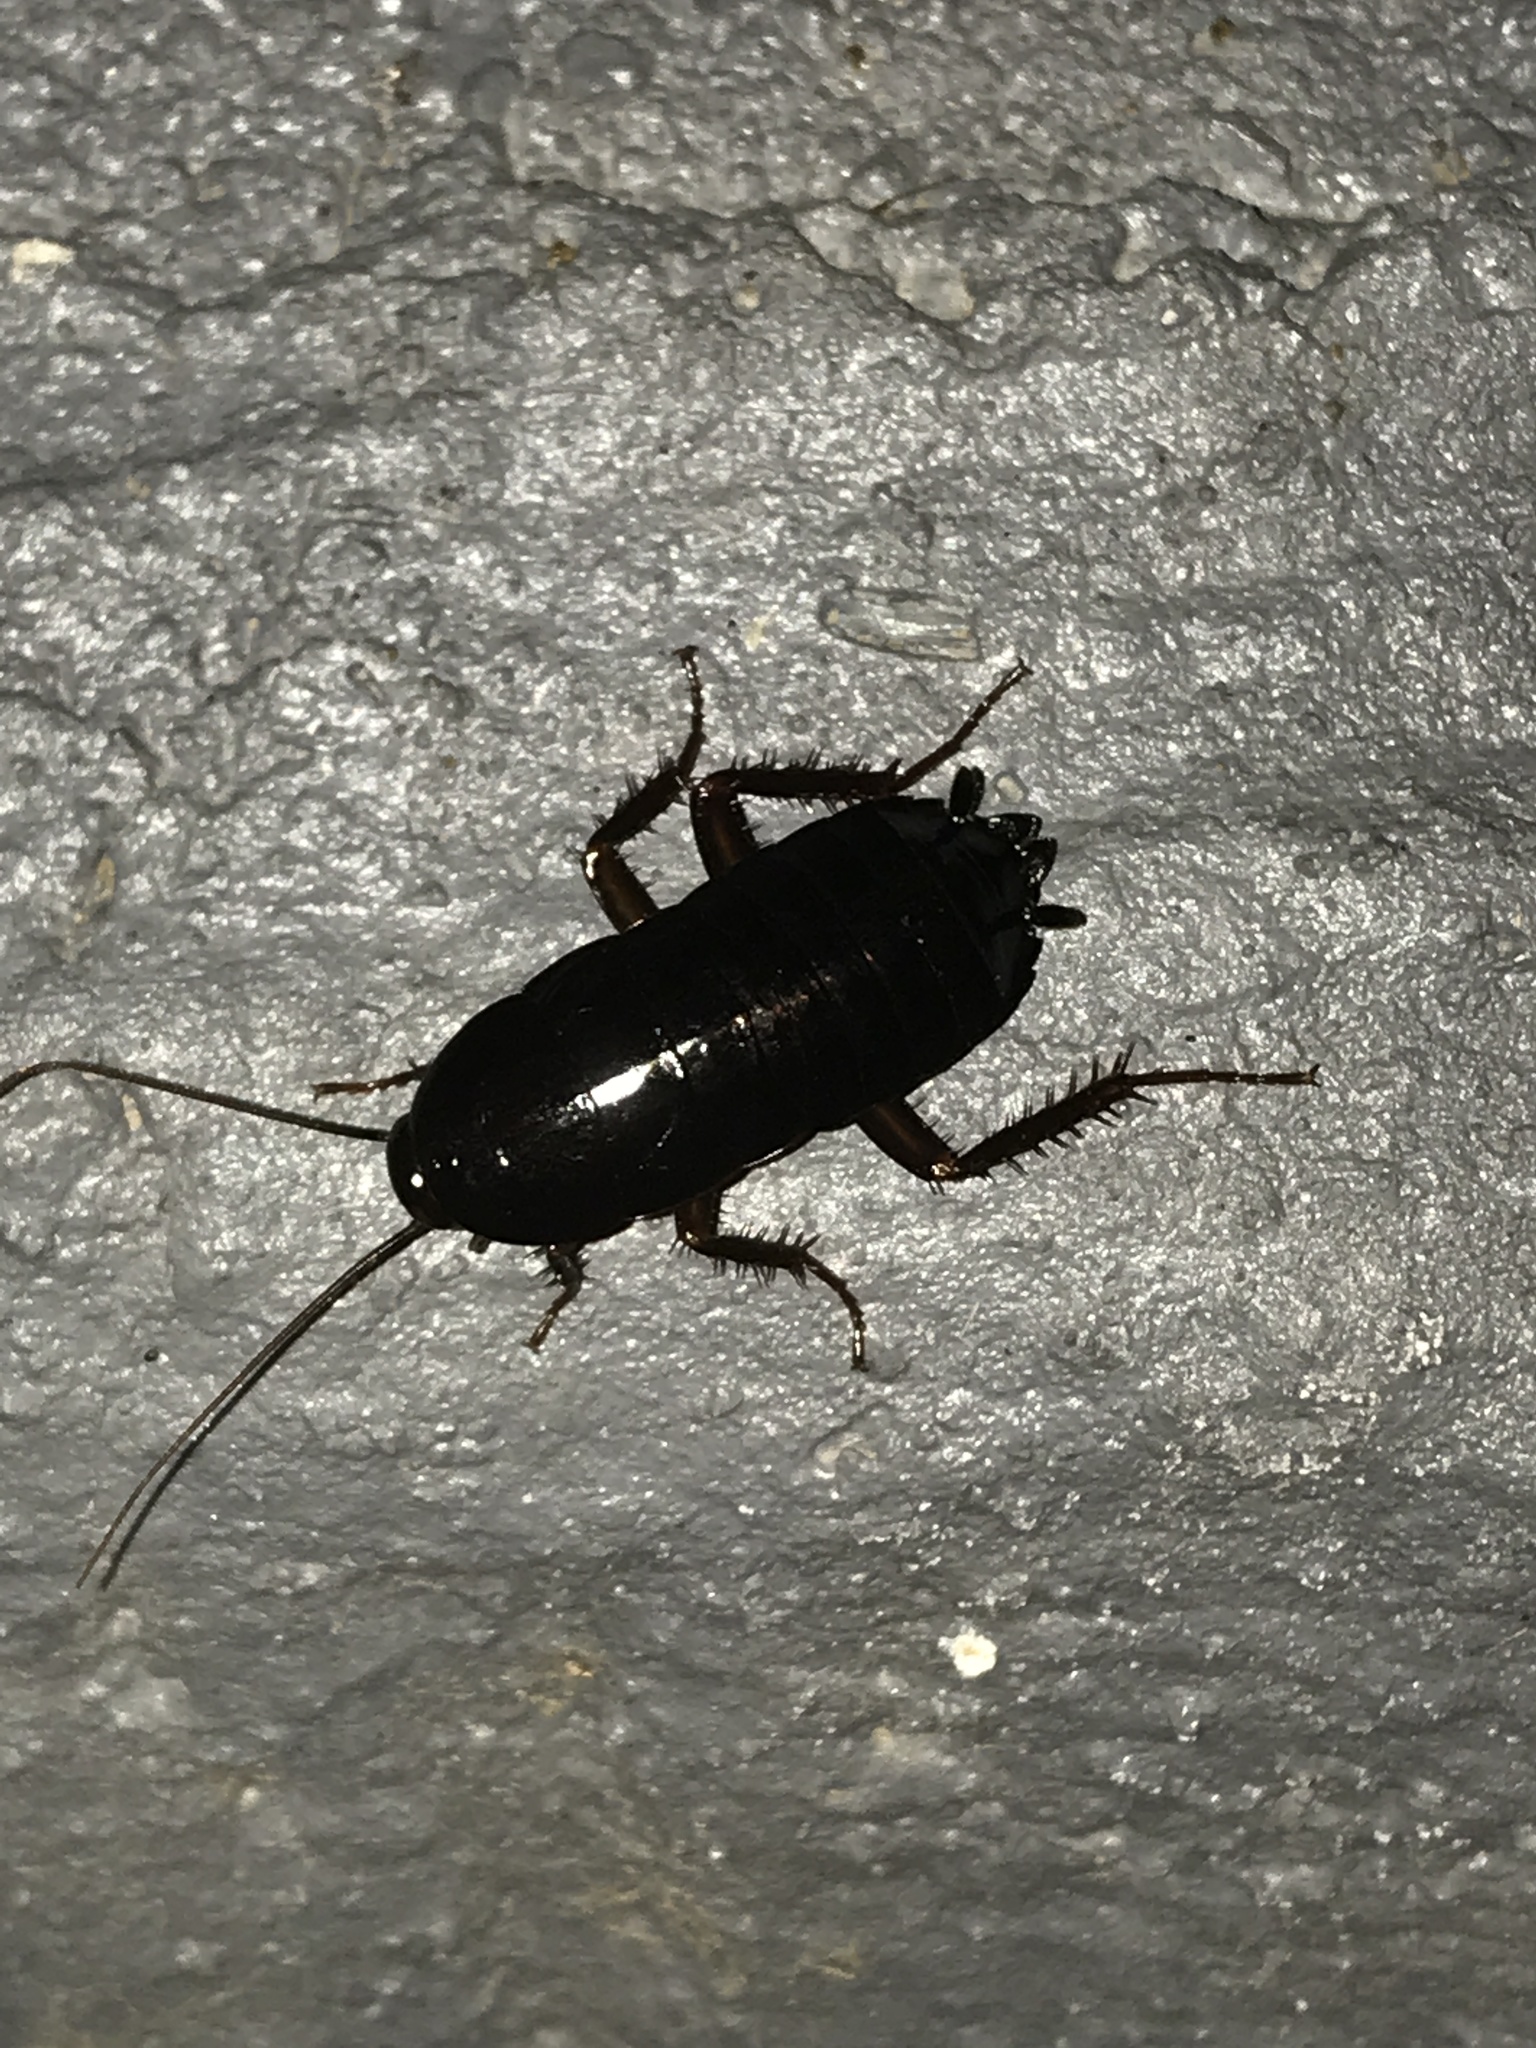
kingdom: Animalia
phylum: Arthropoda
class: Insecta
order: Blattodea
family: Blattidae
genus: Blatta
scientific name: Blatta orientalis
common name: Oriental cockroach
